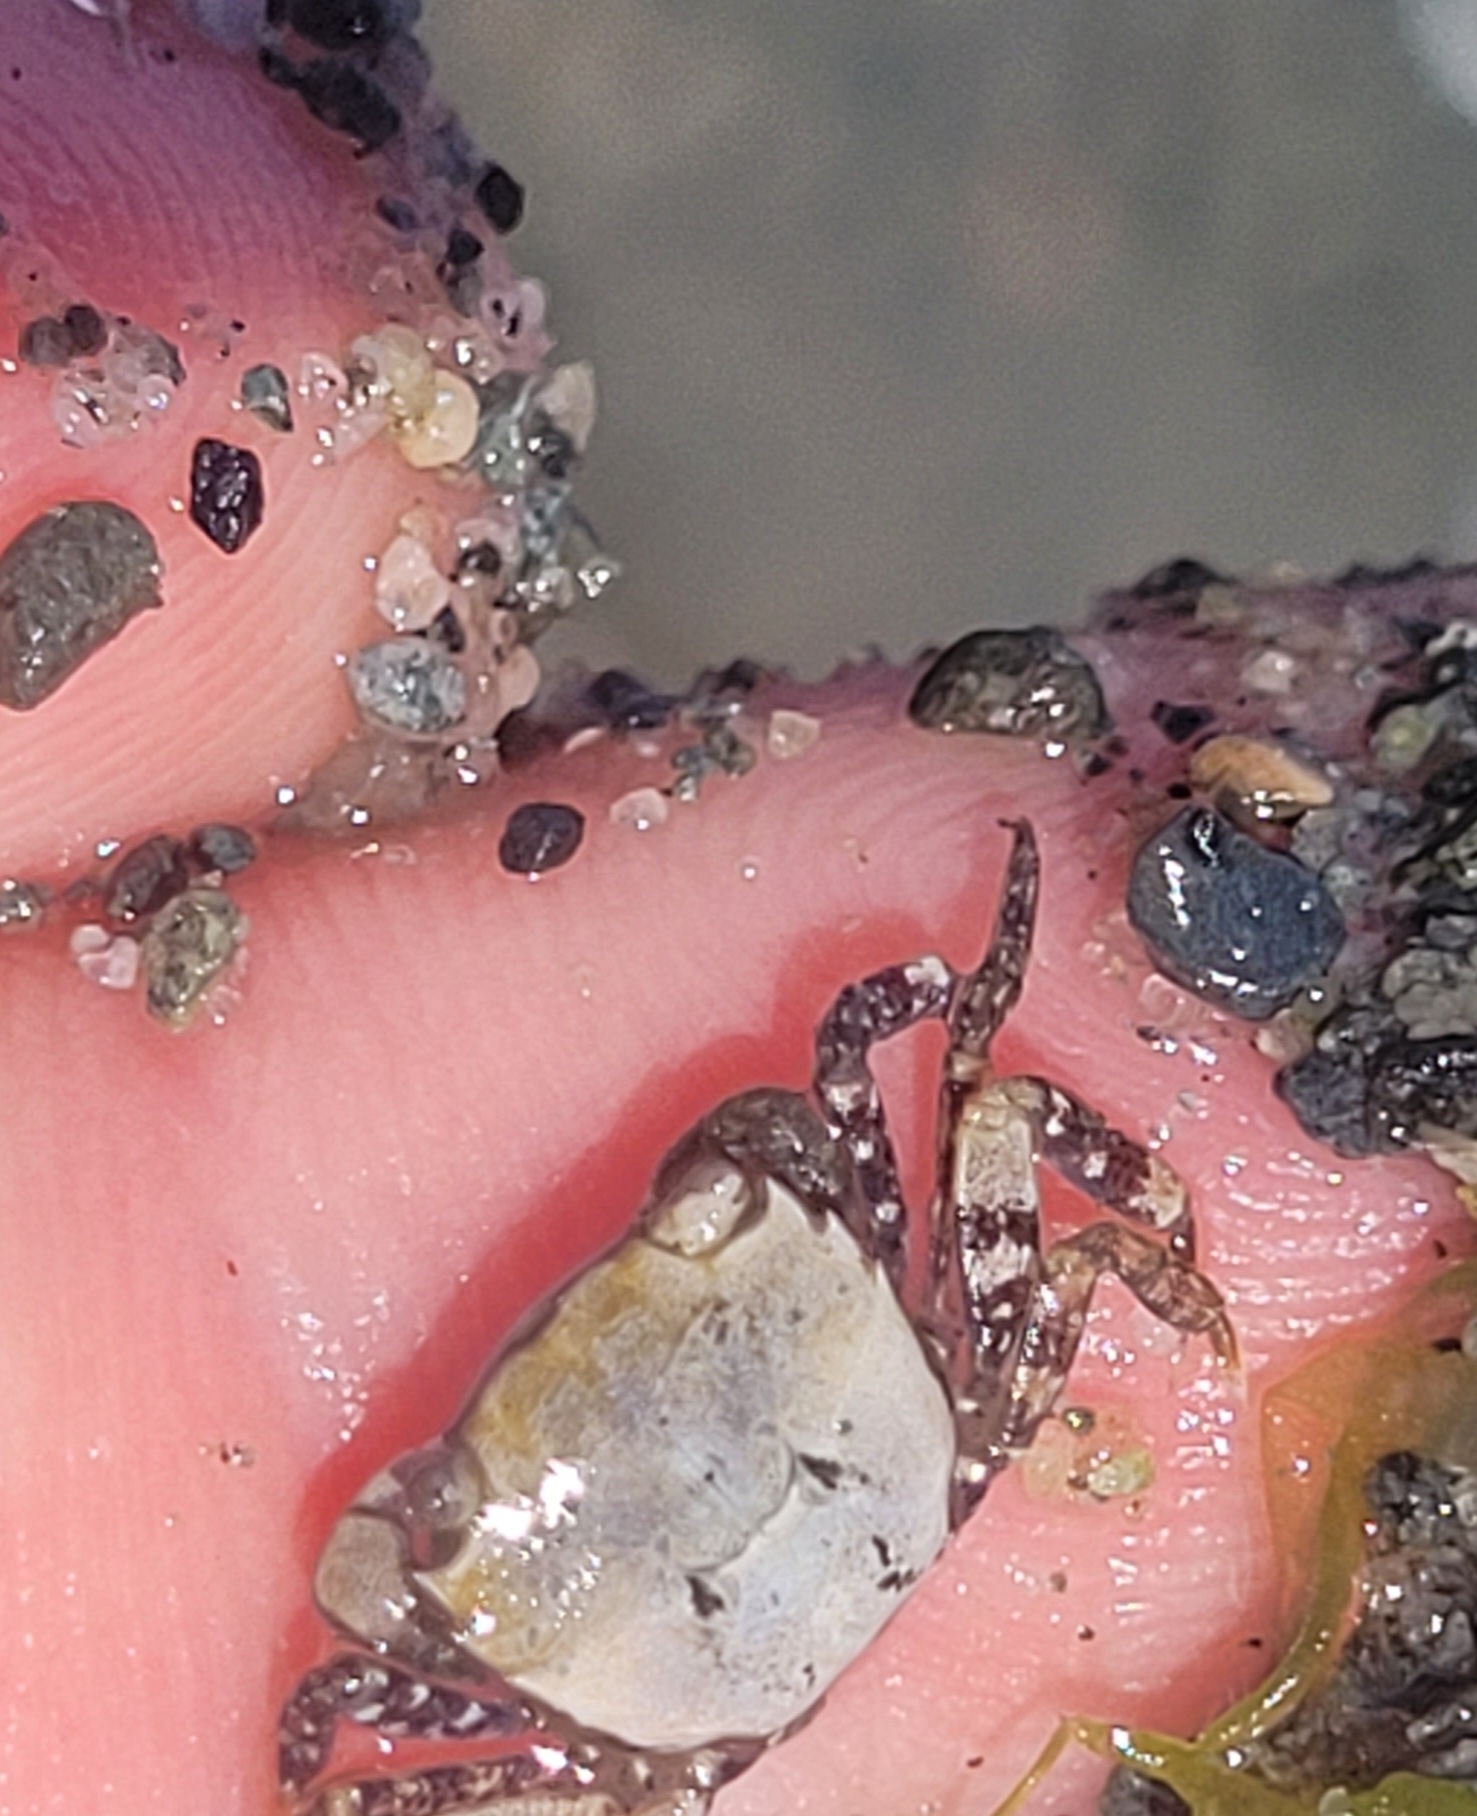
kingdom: Animalia
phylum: Arthropoda
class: Malacostraca
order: Decapoda
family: Varunidae
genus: Hemigrapsus
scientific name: Hemigrapsus oregonensis
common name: Yellow shore crab
